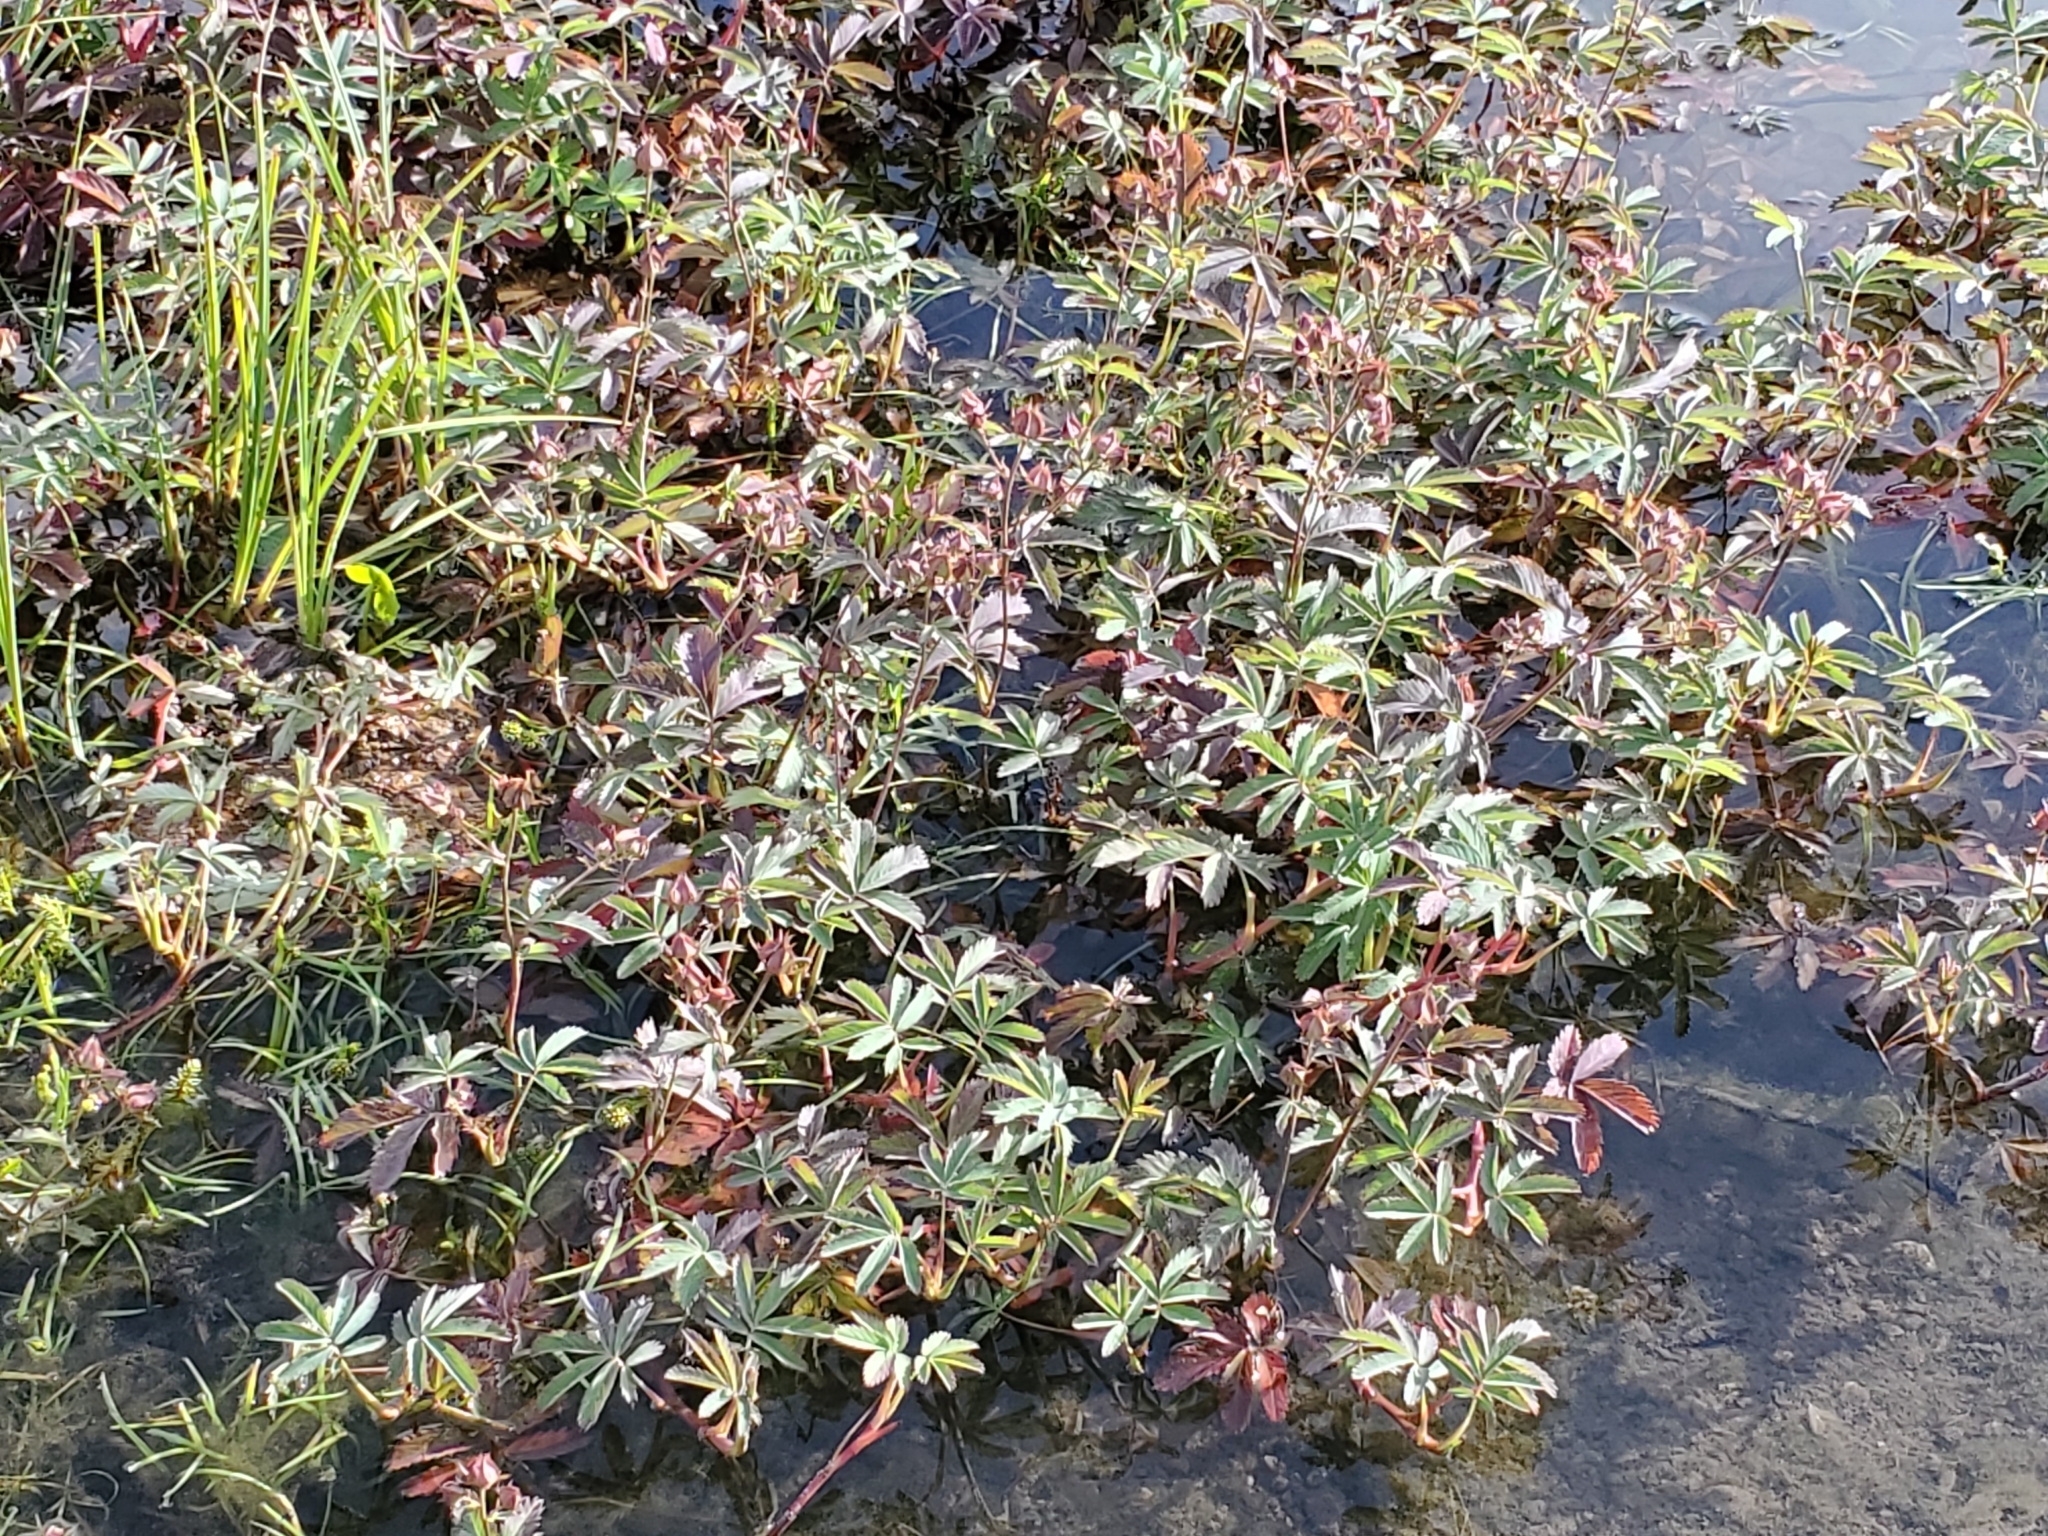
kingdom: Plantae
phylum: Tracheophyta
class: Magnoliopsida
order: Rosales
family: Rosaceae
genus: Comarum
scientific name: Comarum palustre
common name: Marsh cinquefoil
